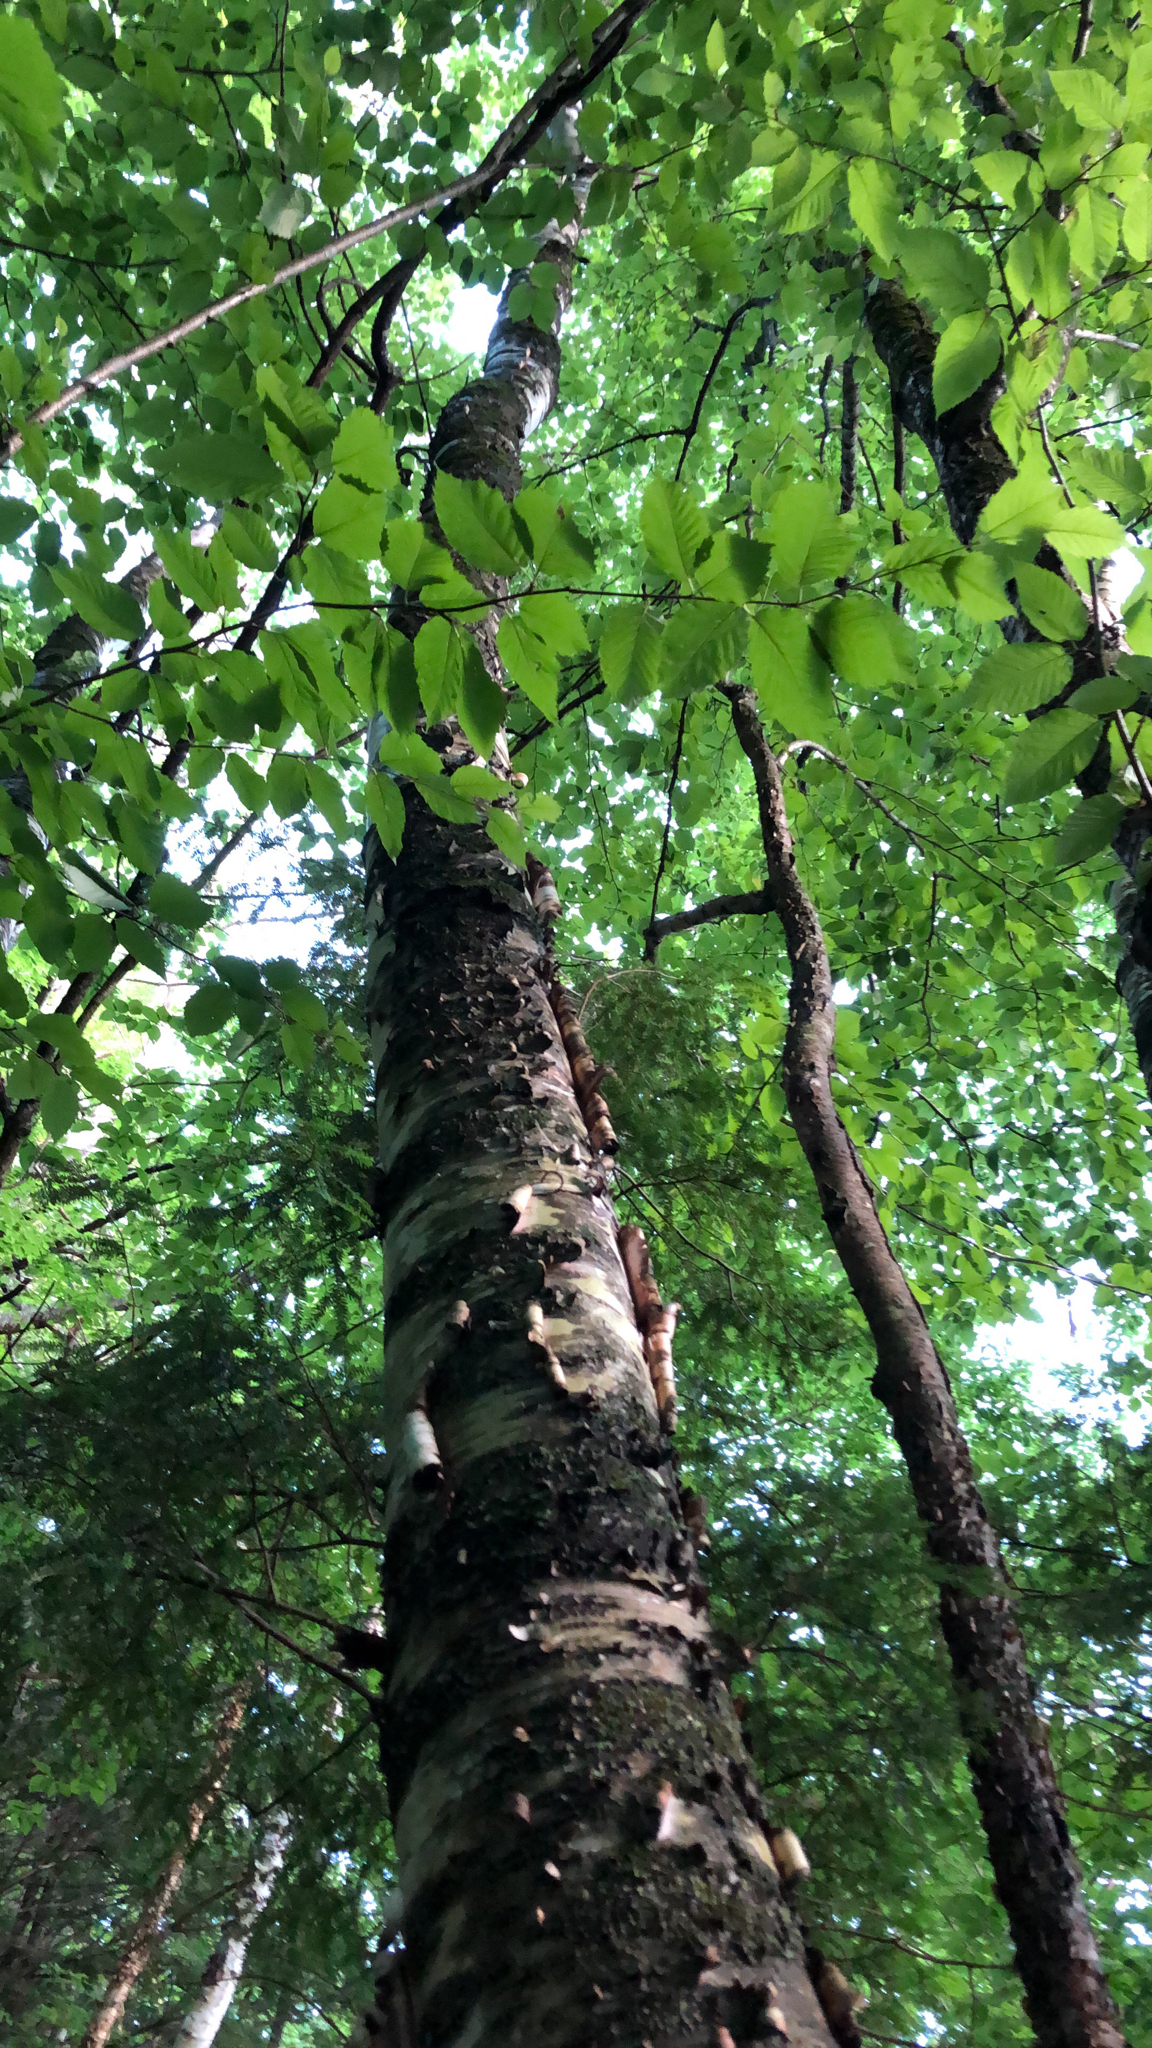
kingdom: Plantae
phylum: Tracheophyta
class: Magnoliopsida
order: Fagales
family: Betulaceae
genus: Betula
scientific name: Betula alleghaniensis
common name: Yellow birch
